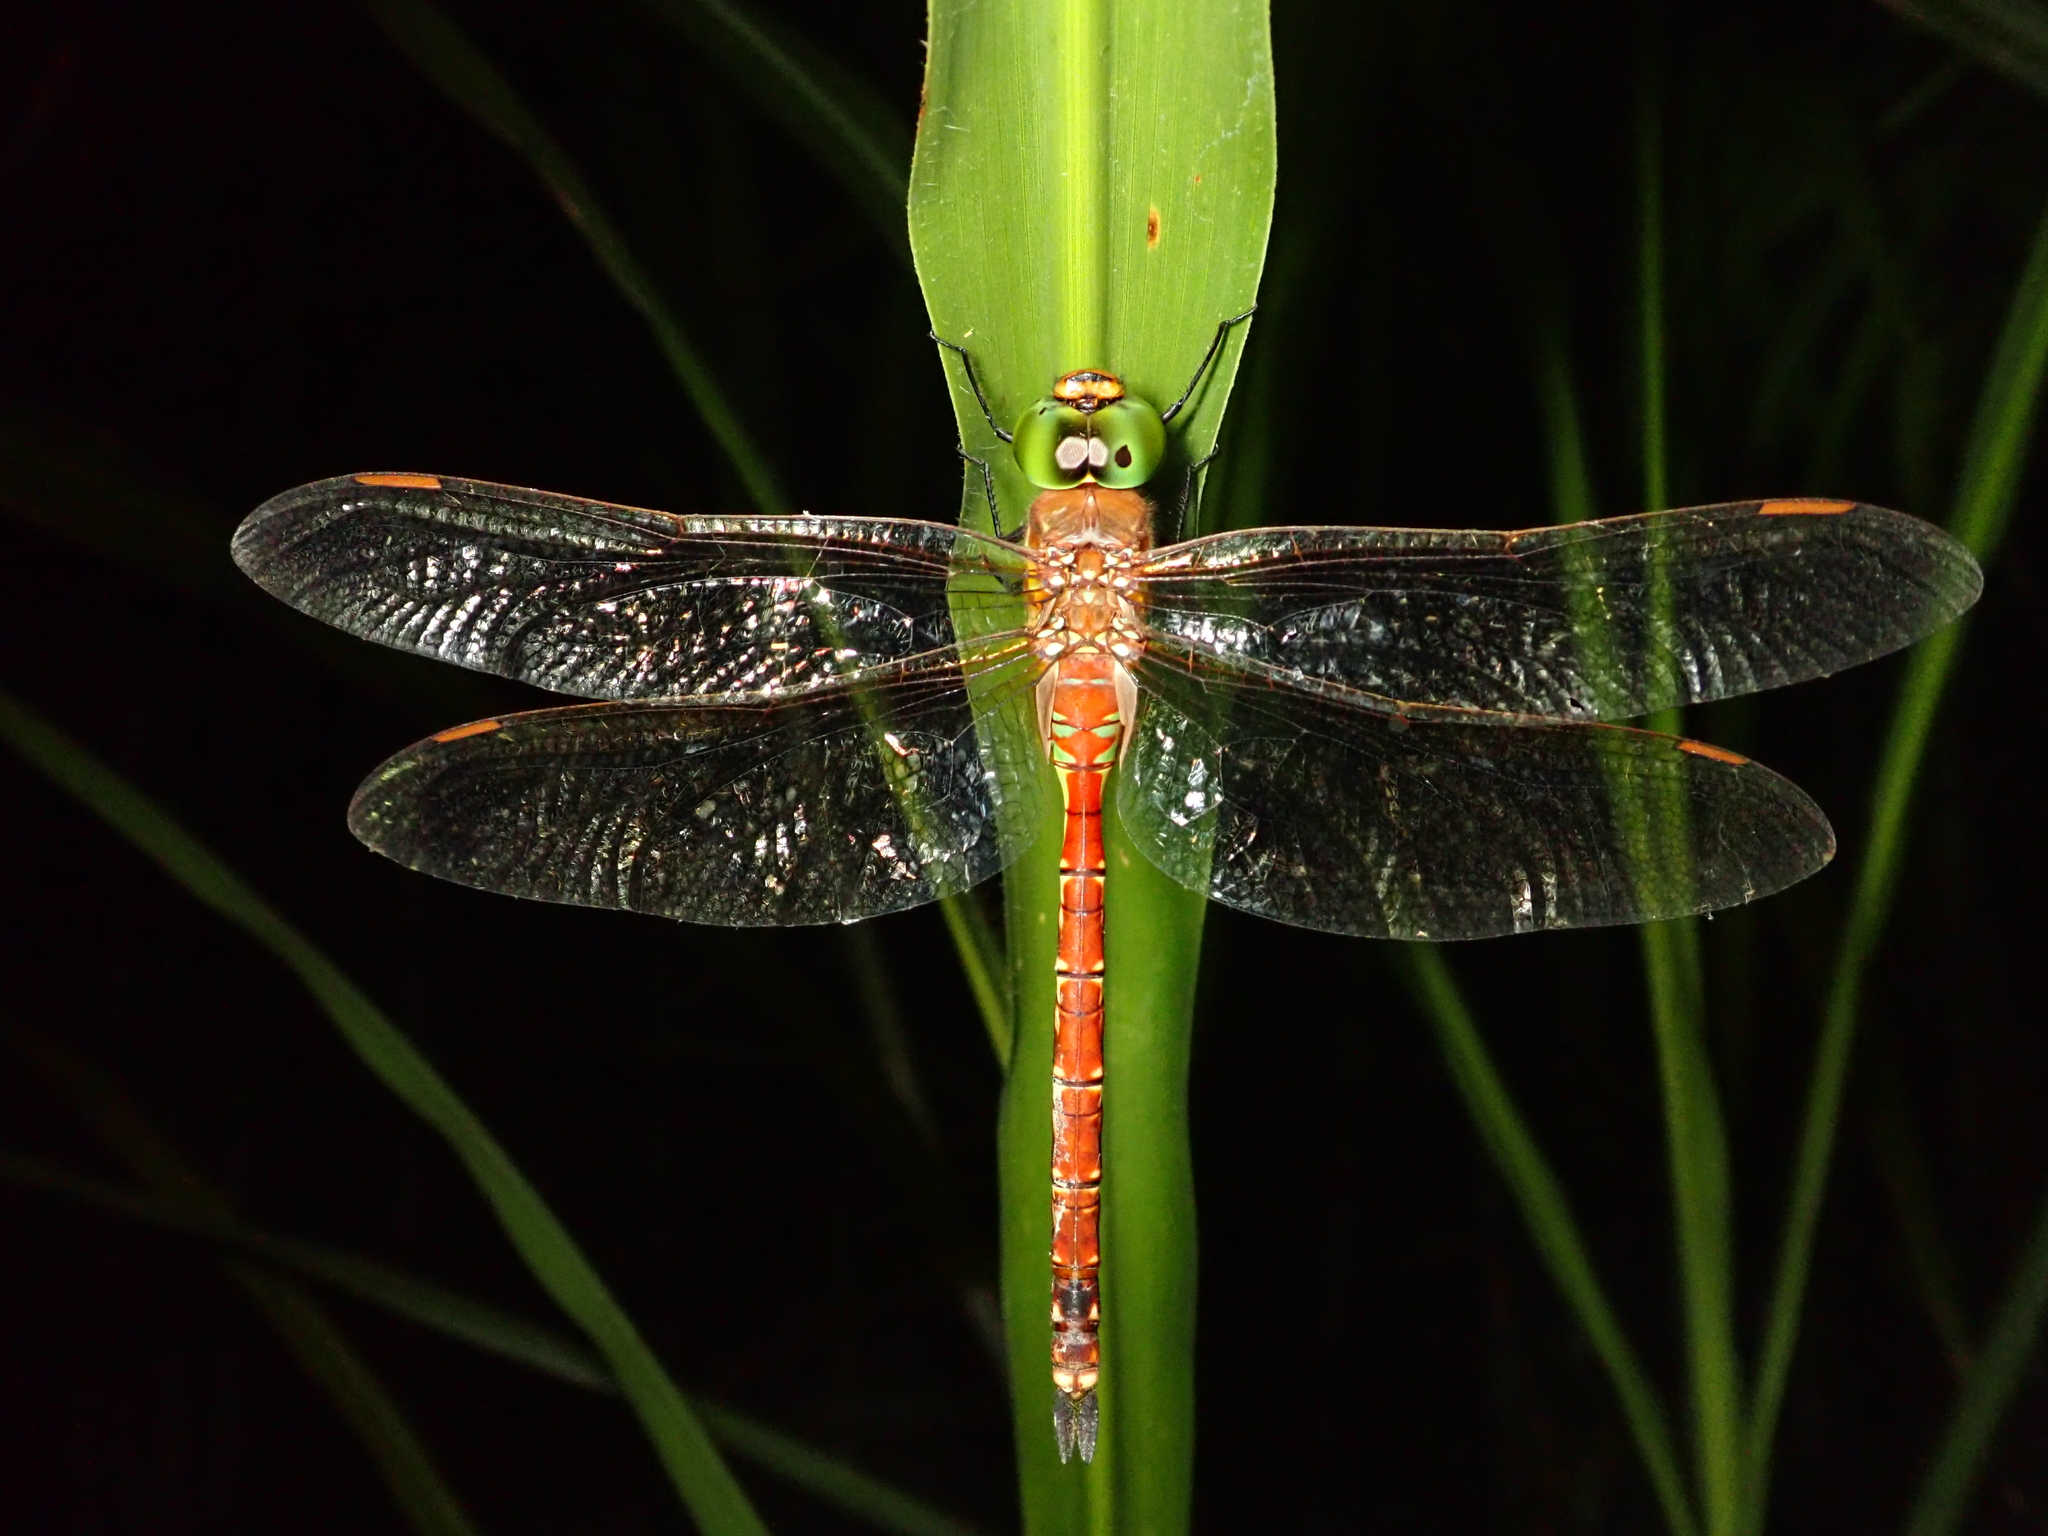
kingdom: Animalia
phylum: Arthropoda
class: Insecta
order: Odonata
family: Aeshnidae
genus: Anaciaeschna
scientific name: Anaciaeschna jaspidea
